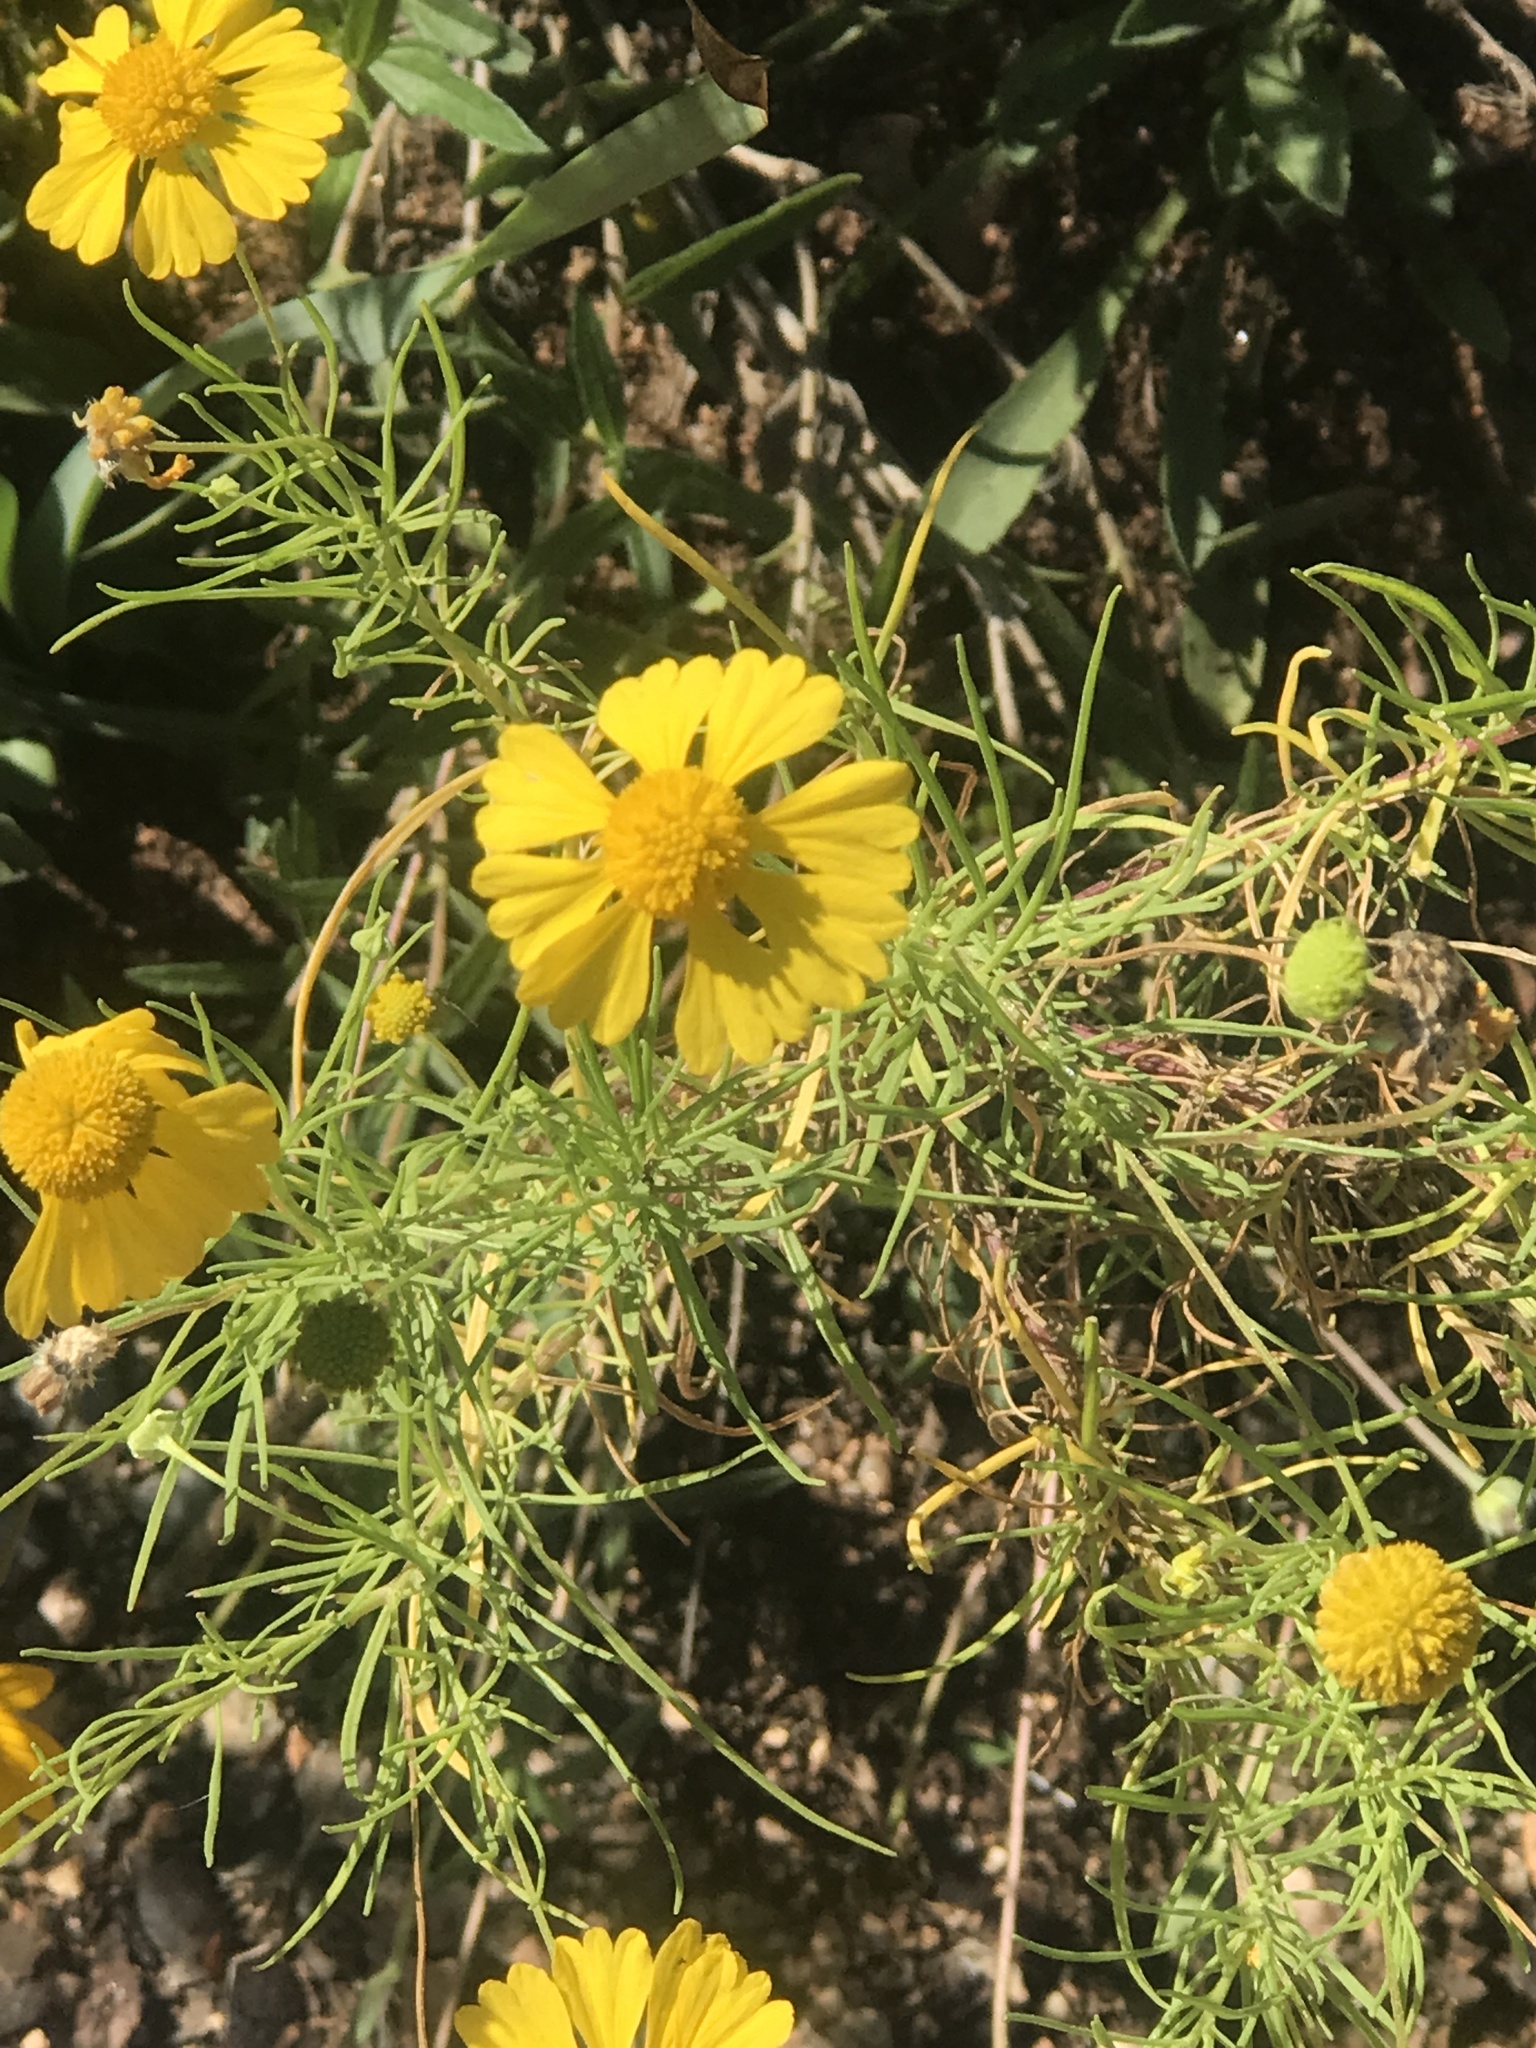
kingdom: Plantae
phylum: Tracheophyta
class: Magnoliopsida
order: Asterales
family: Asteraceae
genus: Helenium
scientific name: Helenium amarum
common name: Bitter sneezeweed
